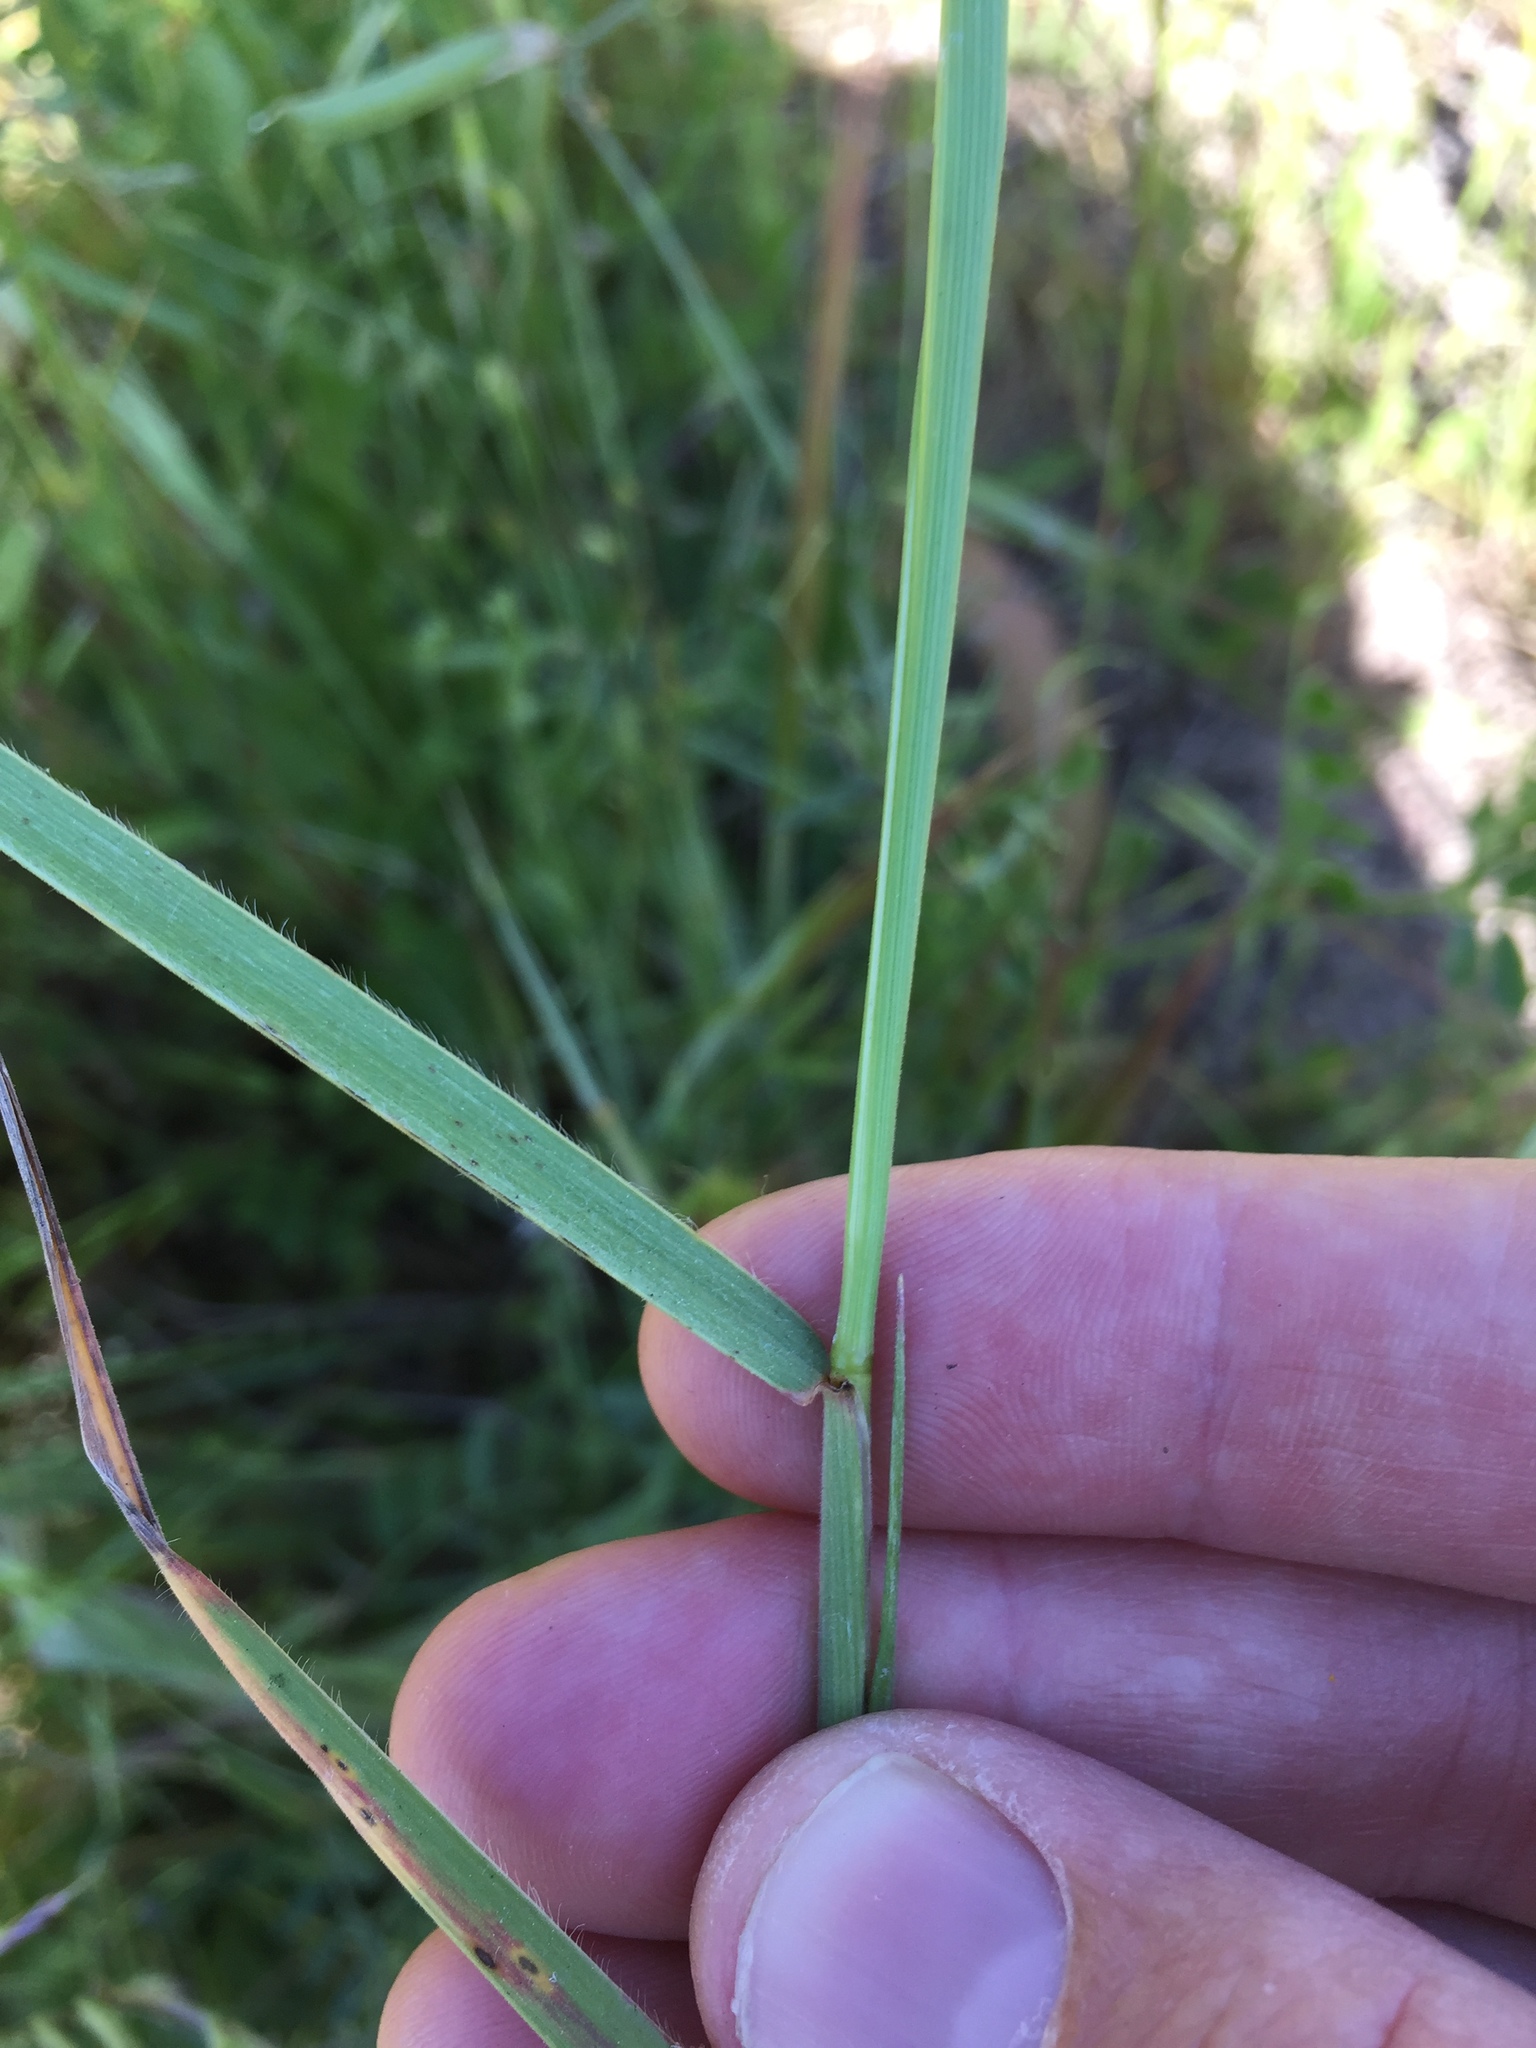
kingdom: Plantae
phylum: Tracheophyta
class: Liliopsida
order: Poales
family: Poaceae
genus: Elymus
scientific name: Elymus multisetus
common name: Big squirreltail
